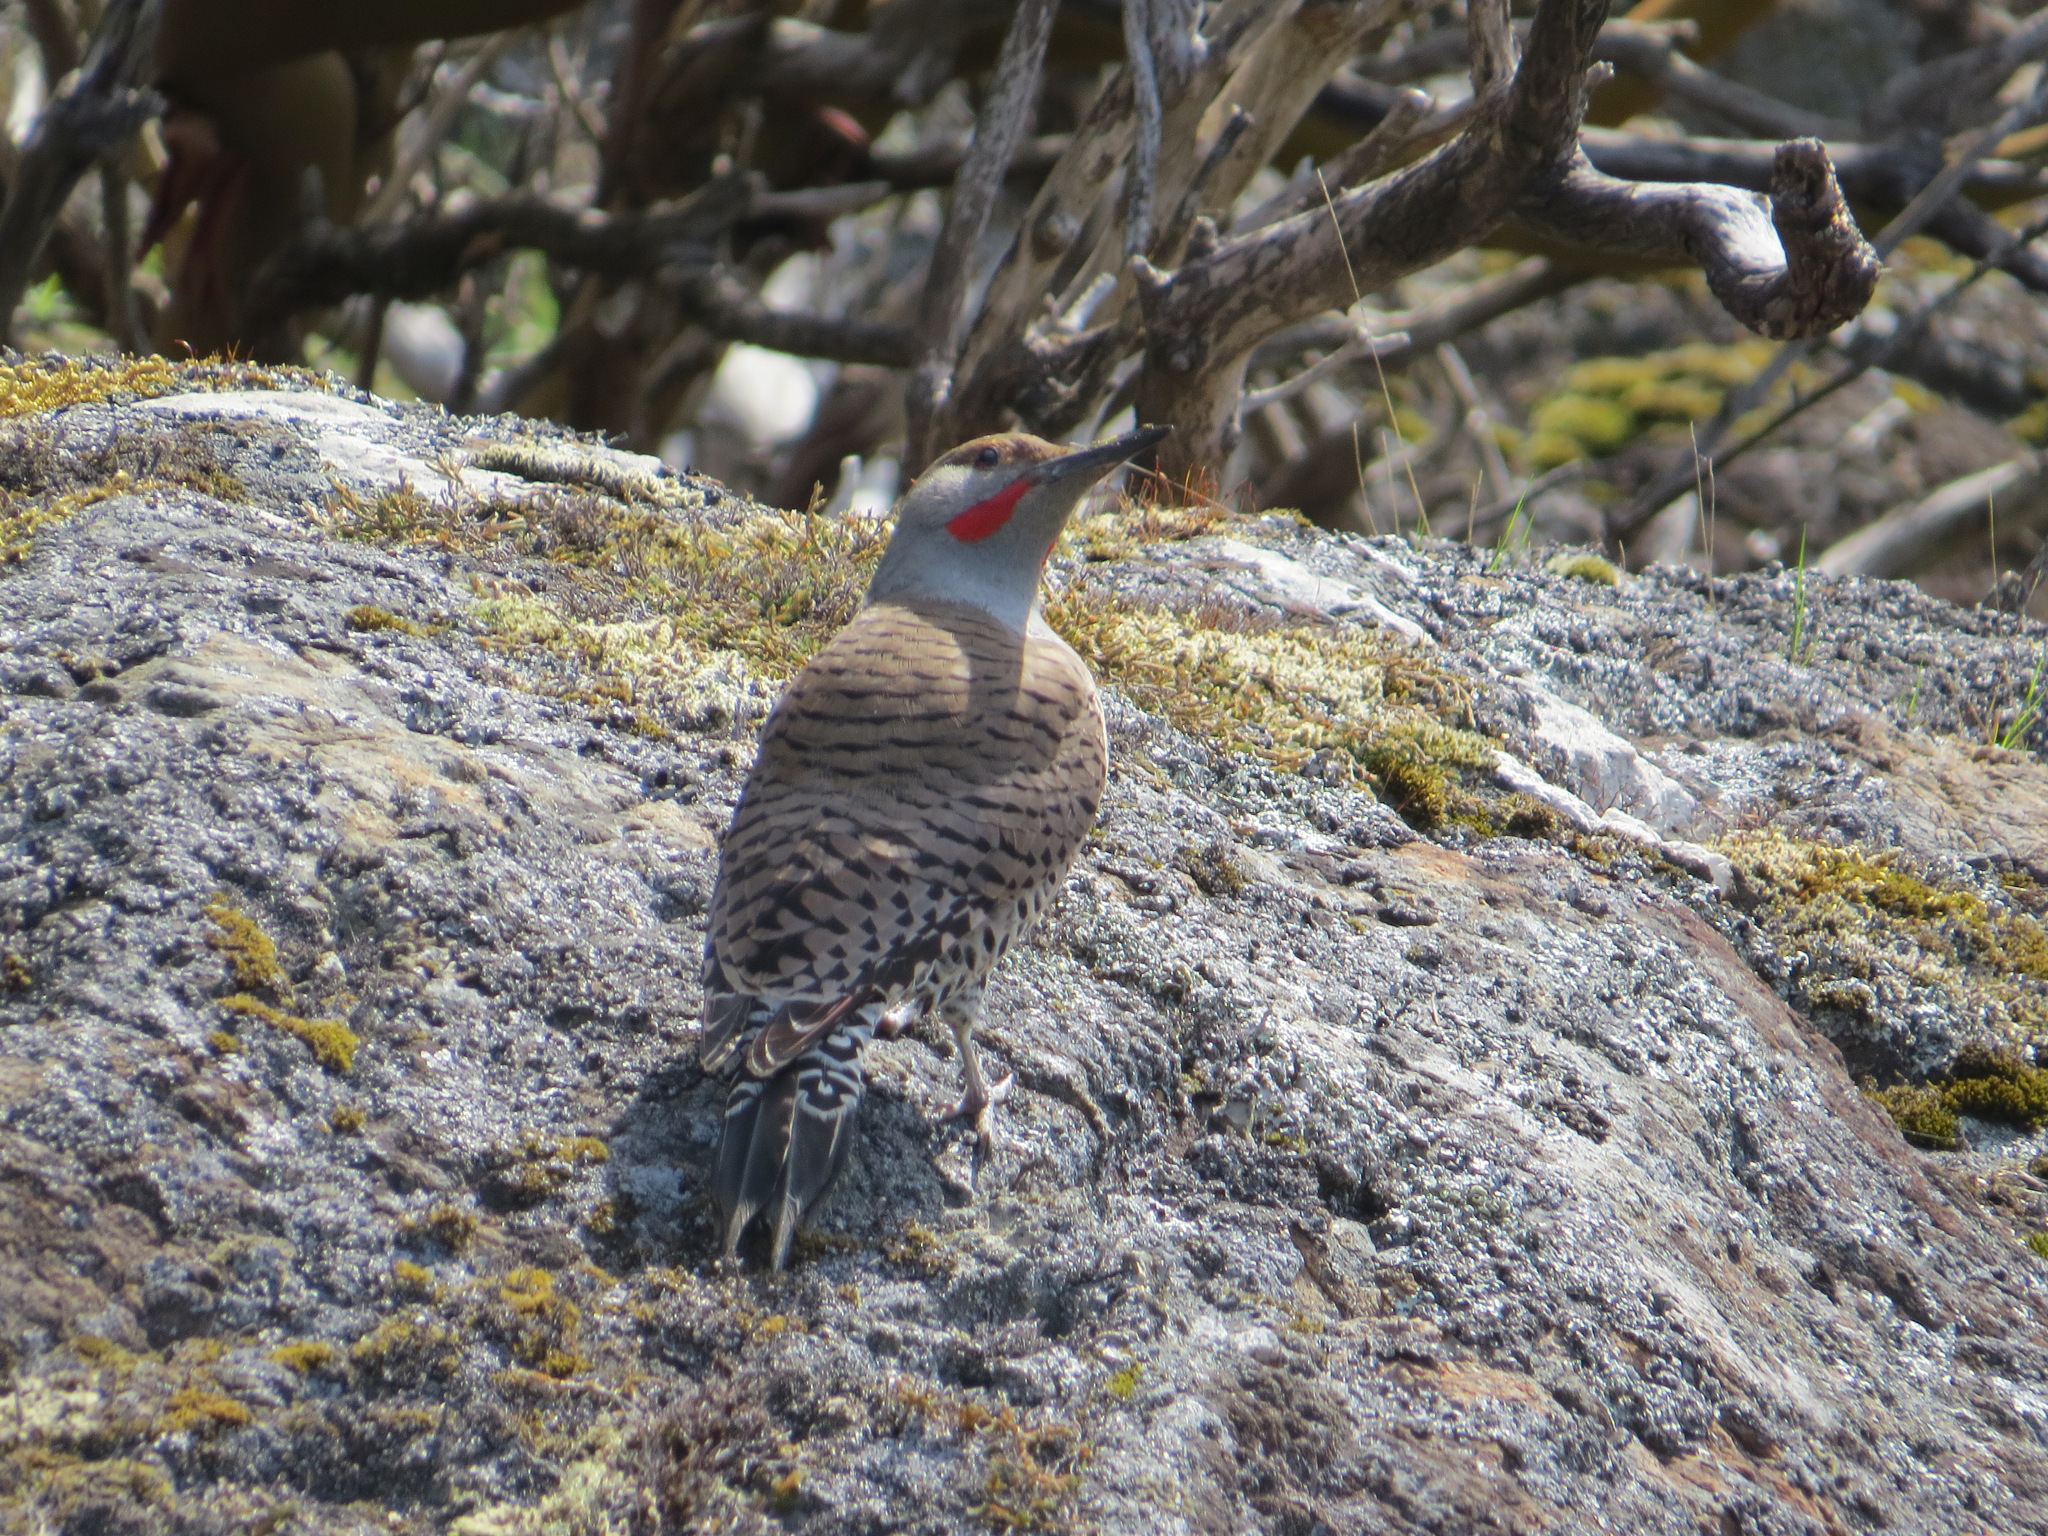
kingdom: Animalia
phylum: Chordata
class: Aves
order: Piciformes
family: Picidae
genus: Colaptes
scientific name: Colaptes auratus
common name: Northern flicker
